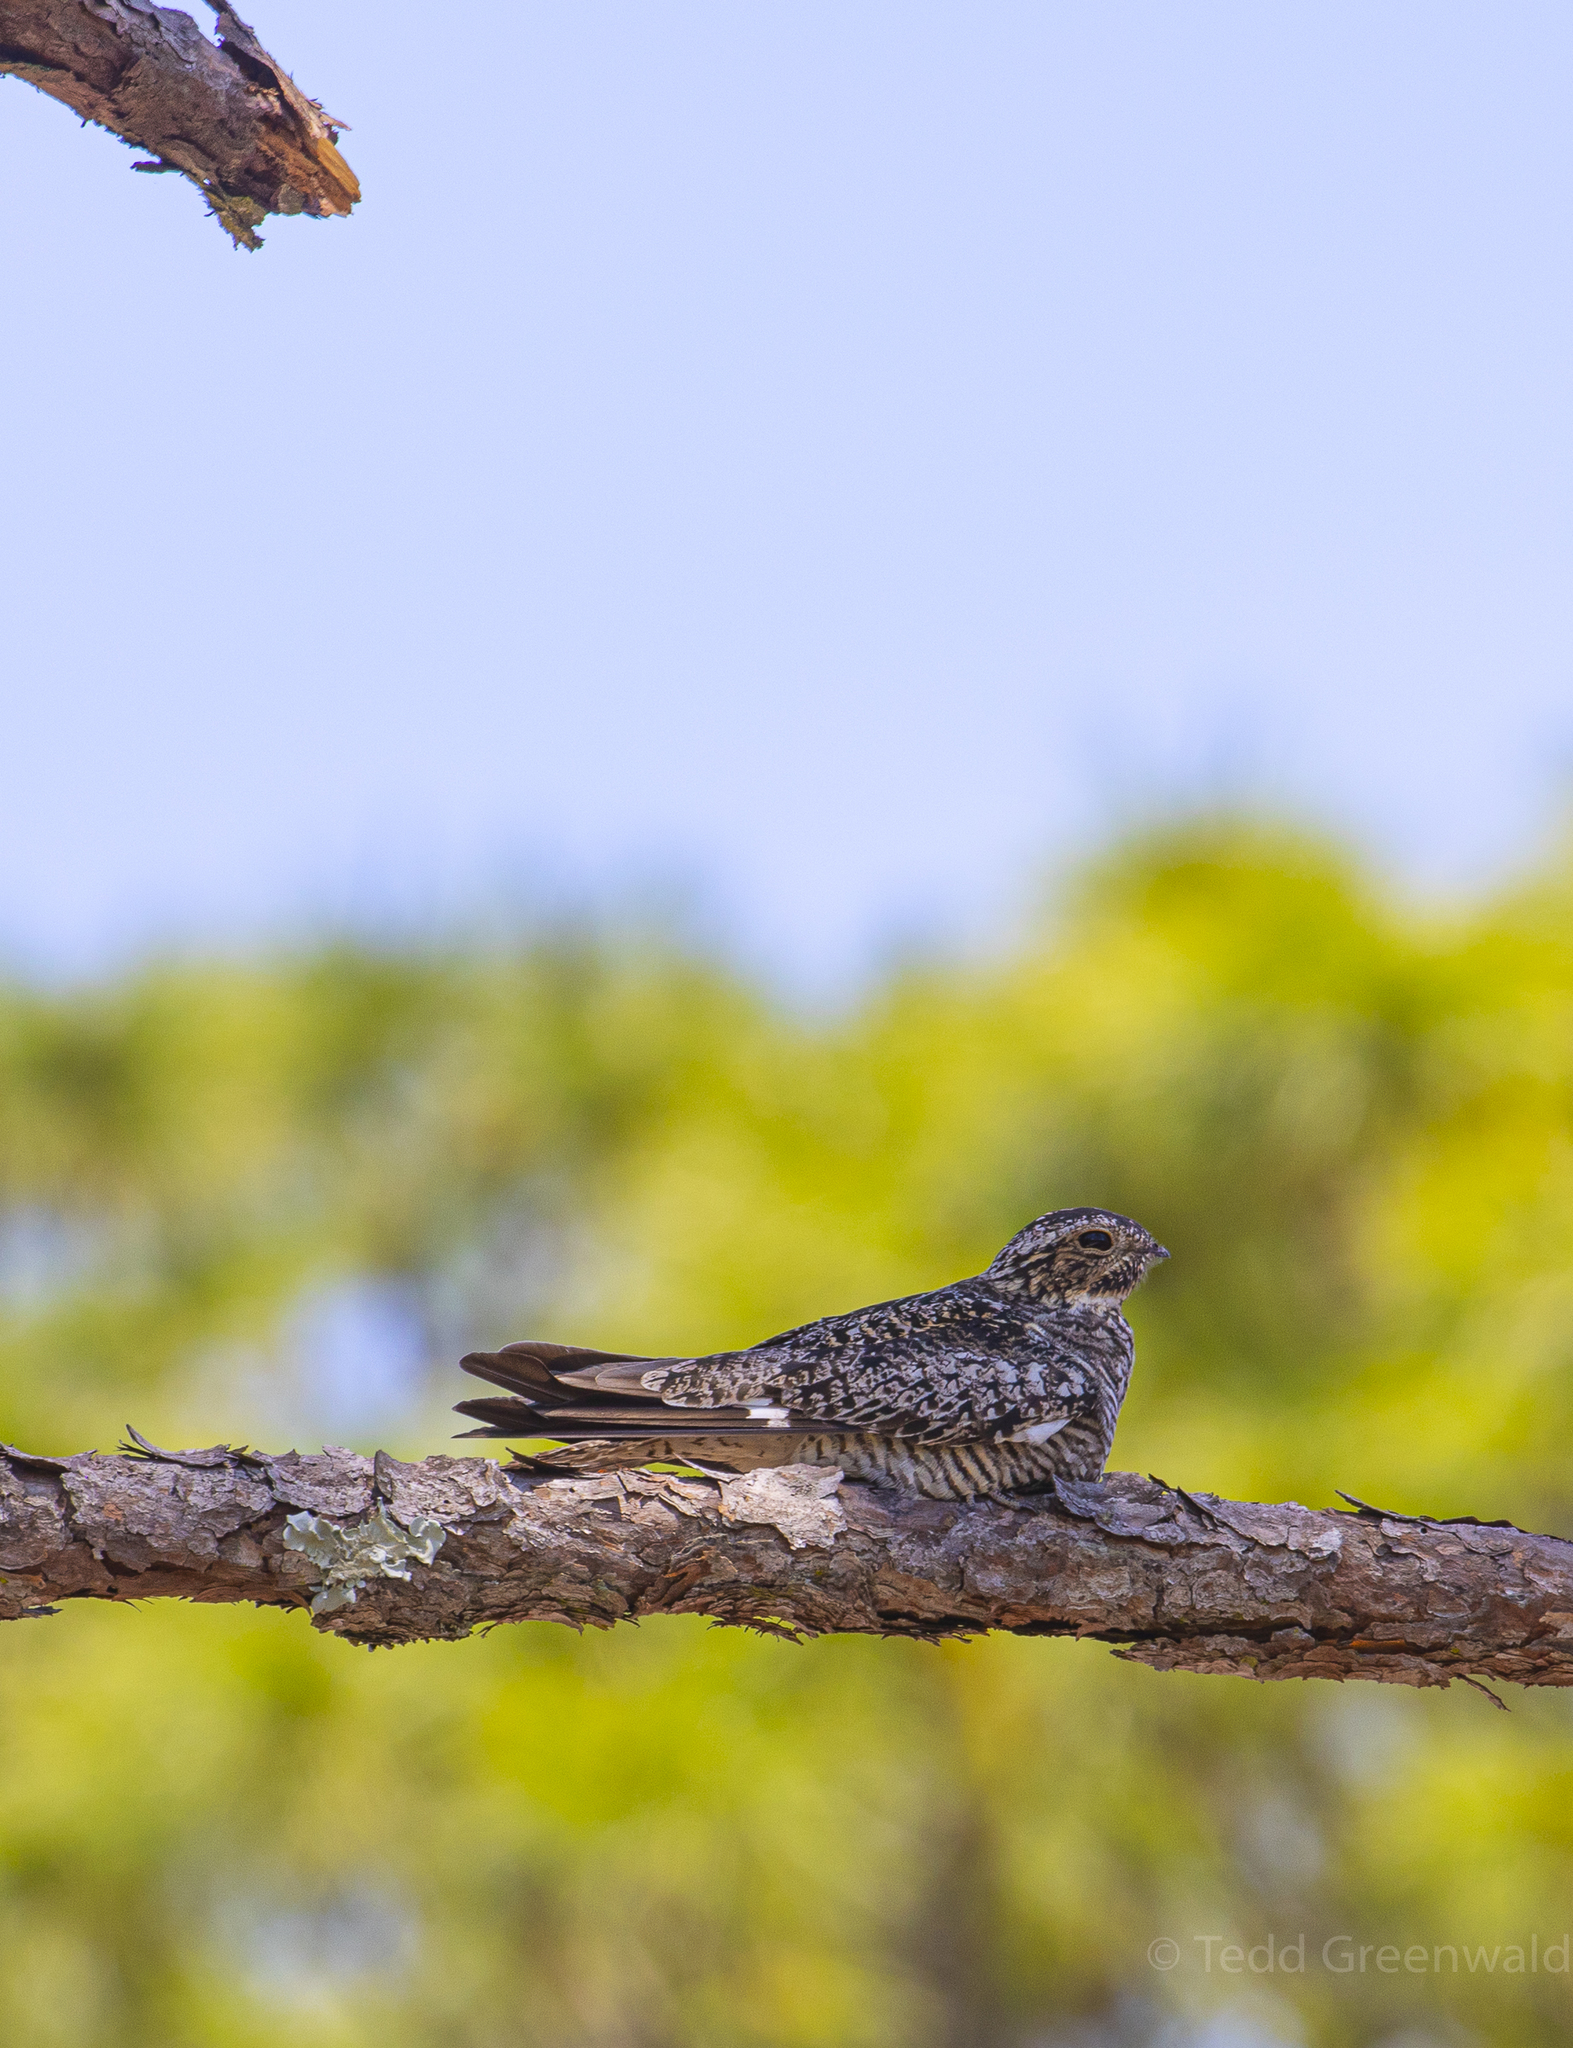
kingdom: Animalia
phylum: Chordata
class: Aves
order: Caprimulgiformes
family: Caprimulgidae
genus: Chordeiles
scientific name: Chordeiles minor
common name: Common nighthawk
